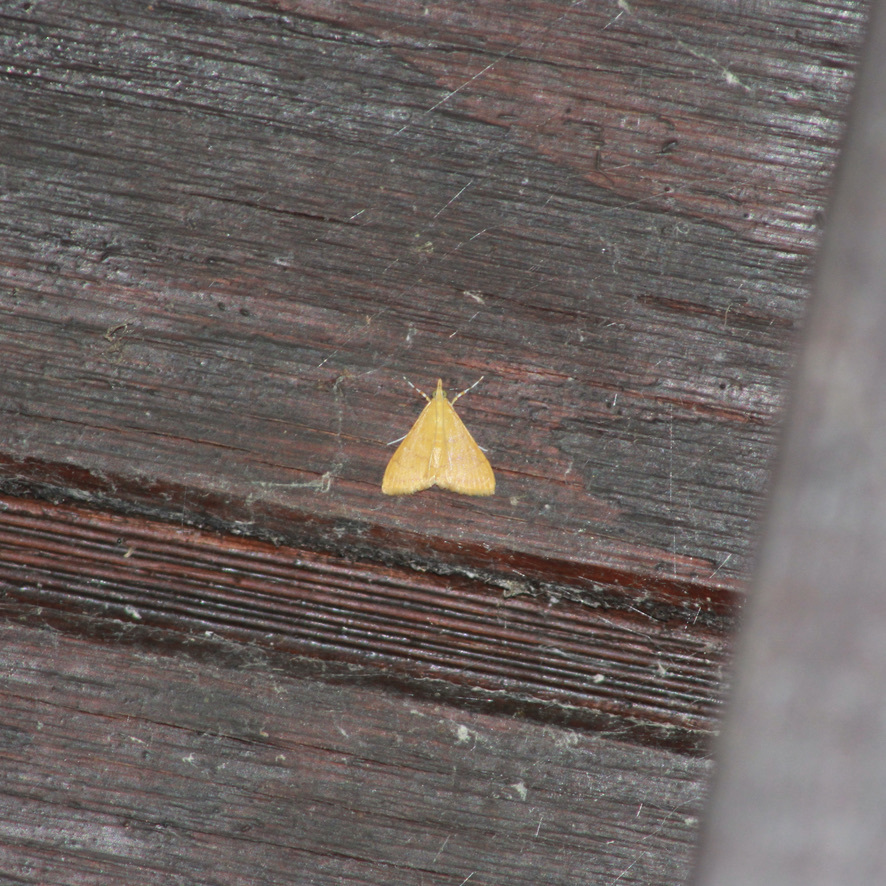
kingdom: Animalia
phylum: Arthropoda
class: Insecta
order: Lepidoptera
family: Crambidae
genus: Pyrausta
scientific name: Pyrausta insignitalis
